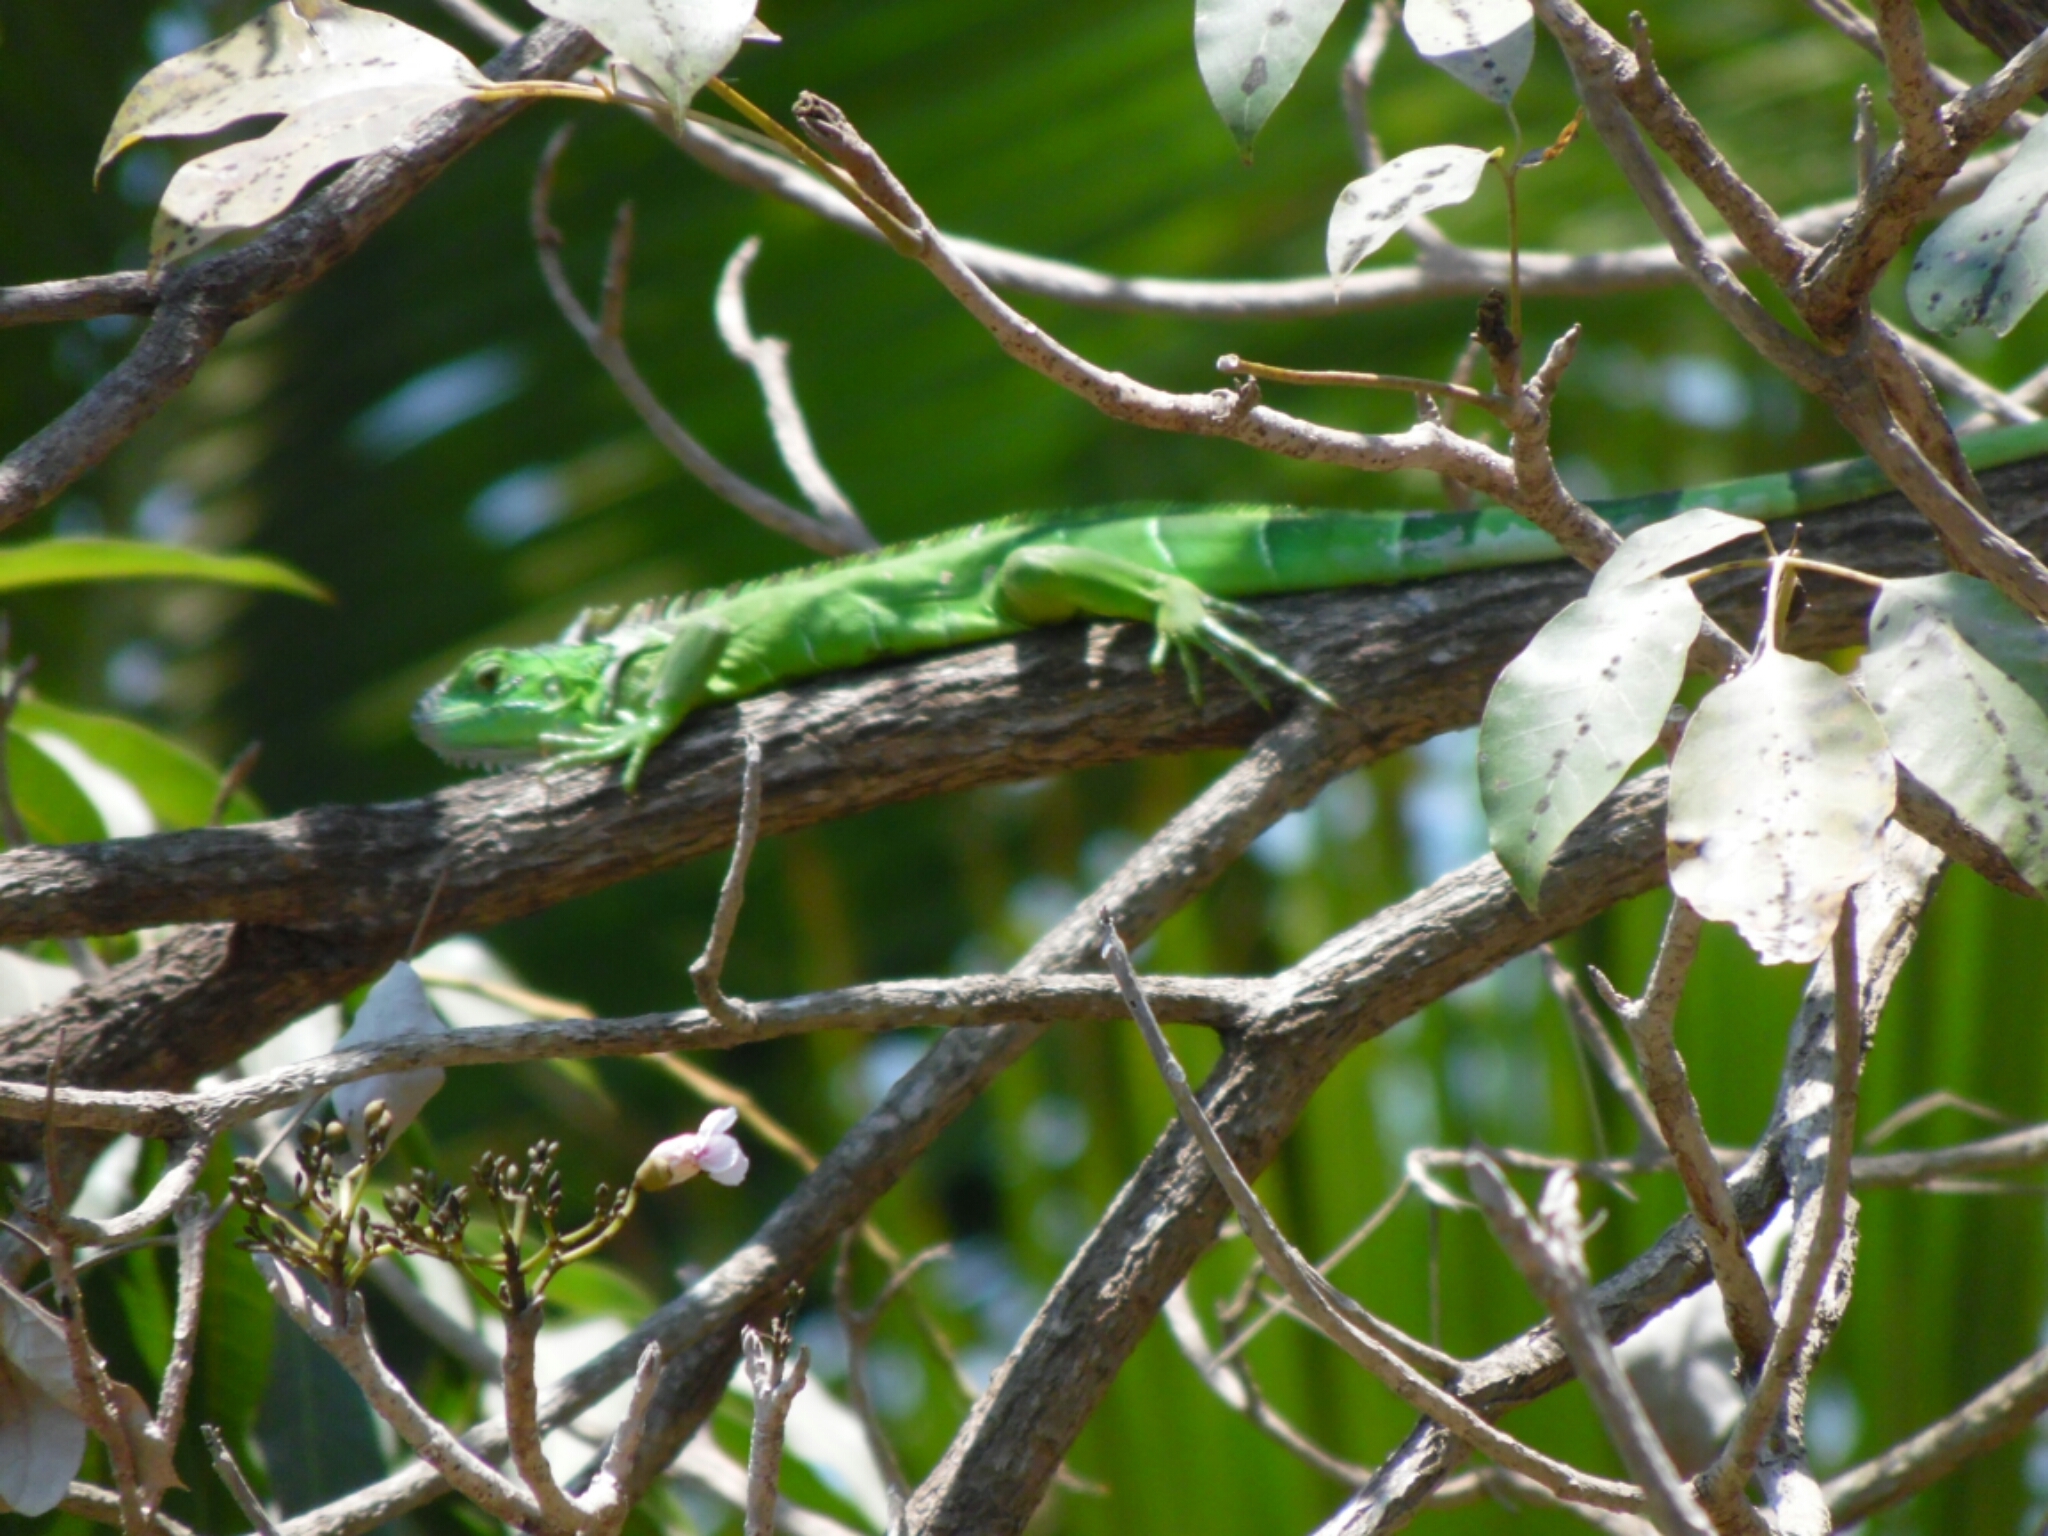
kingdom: Animalia
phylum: Chordata
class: Squamata
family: Iguanidae
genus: Iguana
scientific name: Iguana iguana
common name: Green iguana
